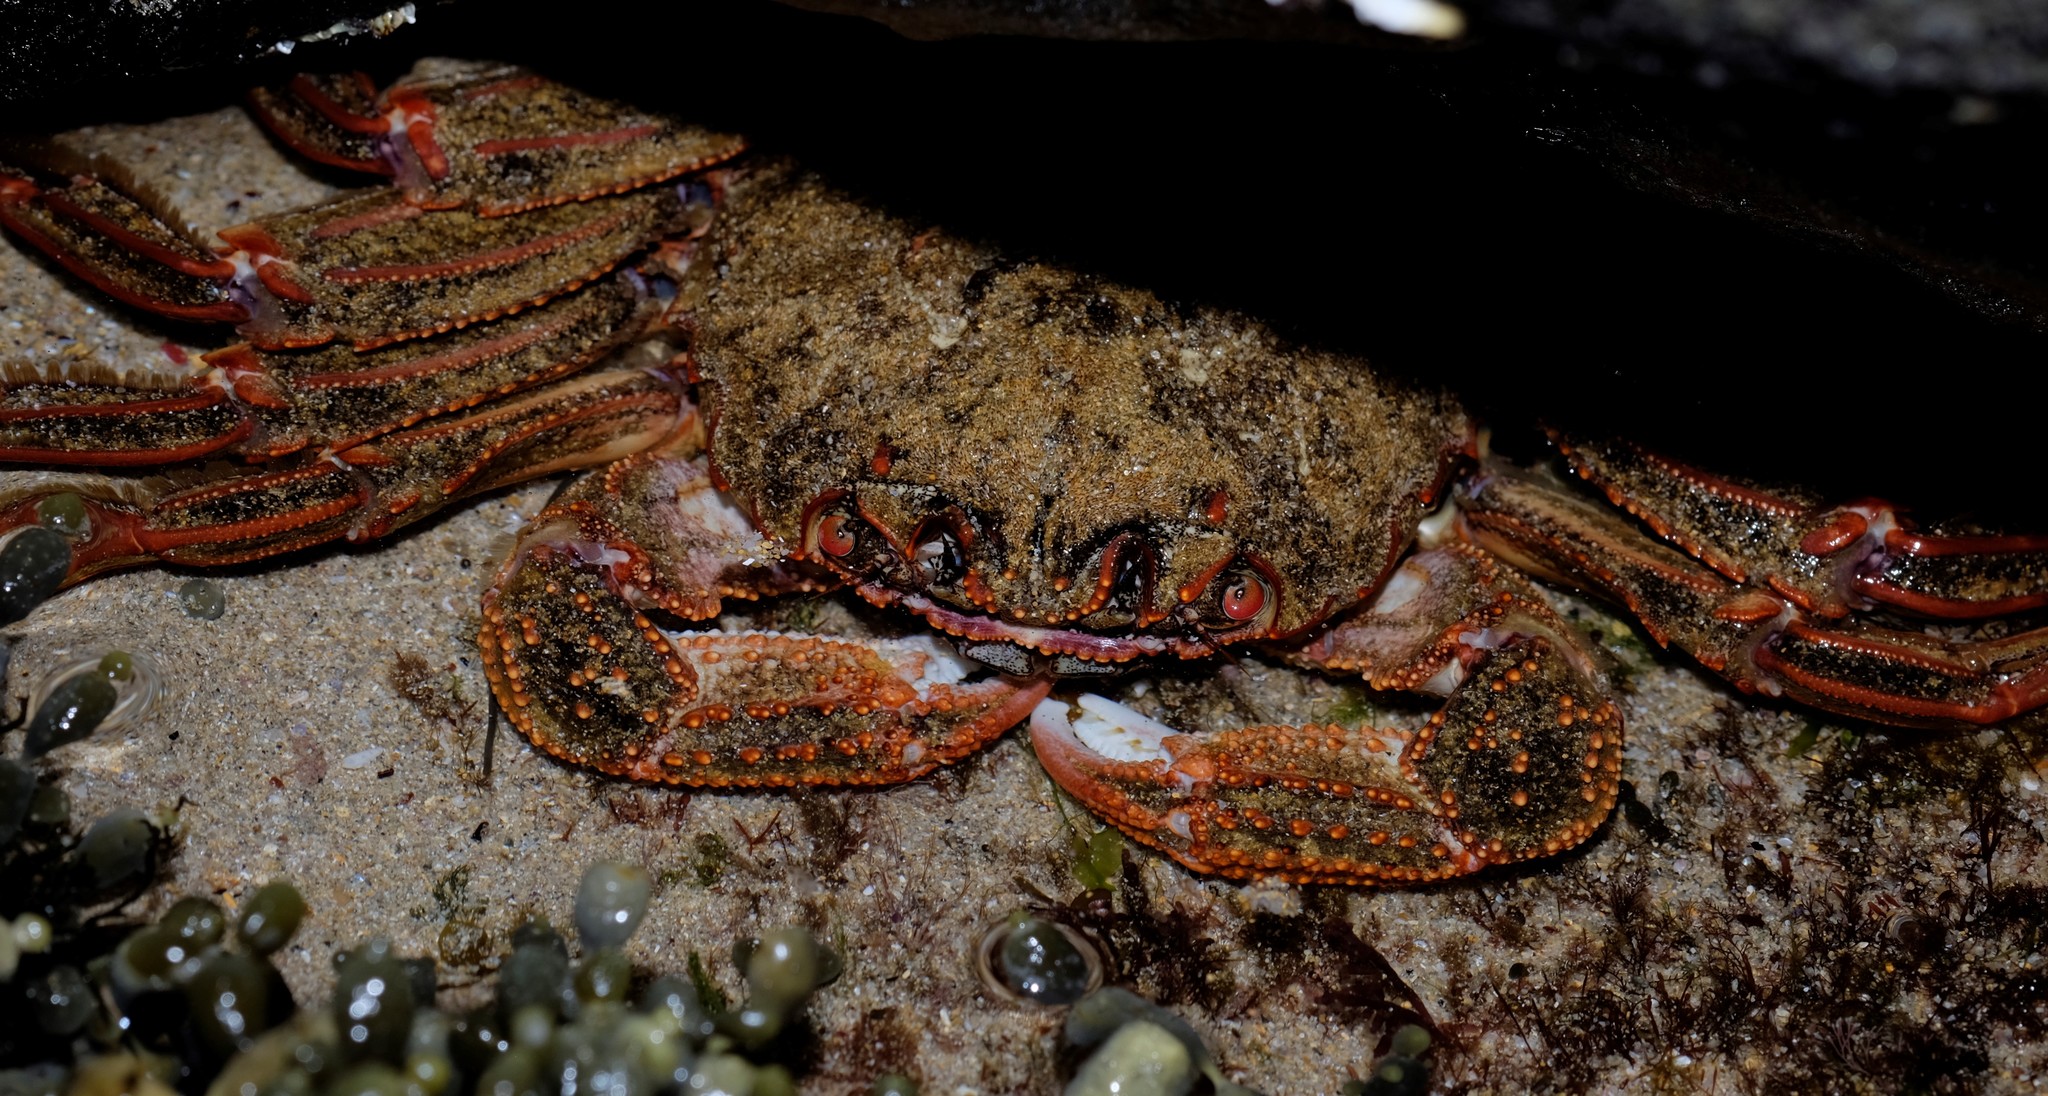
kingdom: Animalia
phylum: Arthropoda
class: Malacostraca
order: Decapoda
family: Plagusiidae
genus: Guinusia
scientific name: Guinusia chabrus
